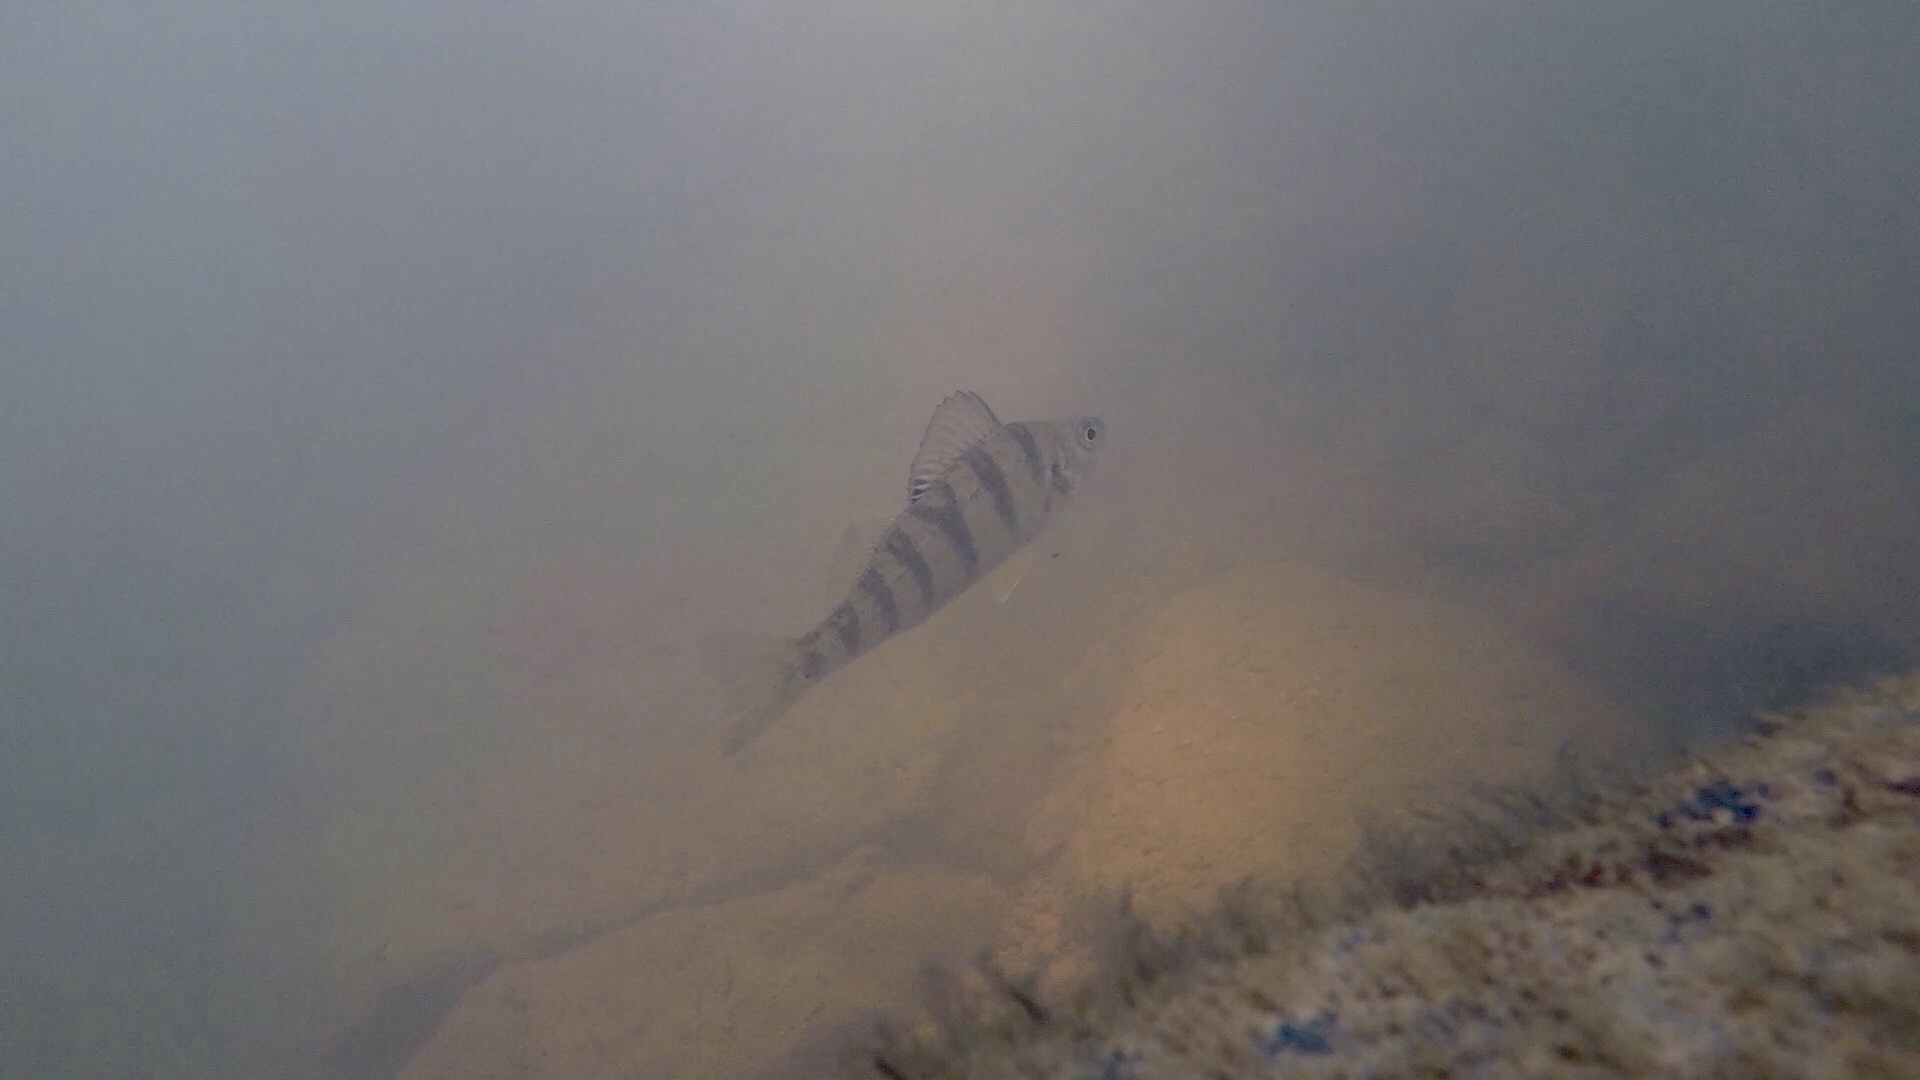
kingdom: Animalia
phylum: Chordata
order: Perciformes
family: Percidae
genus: Perca
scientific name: Perca flavescens
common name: Yellow perch
